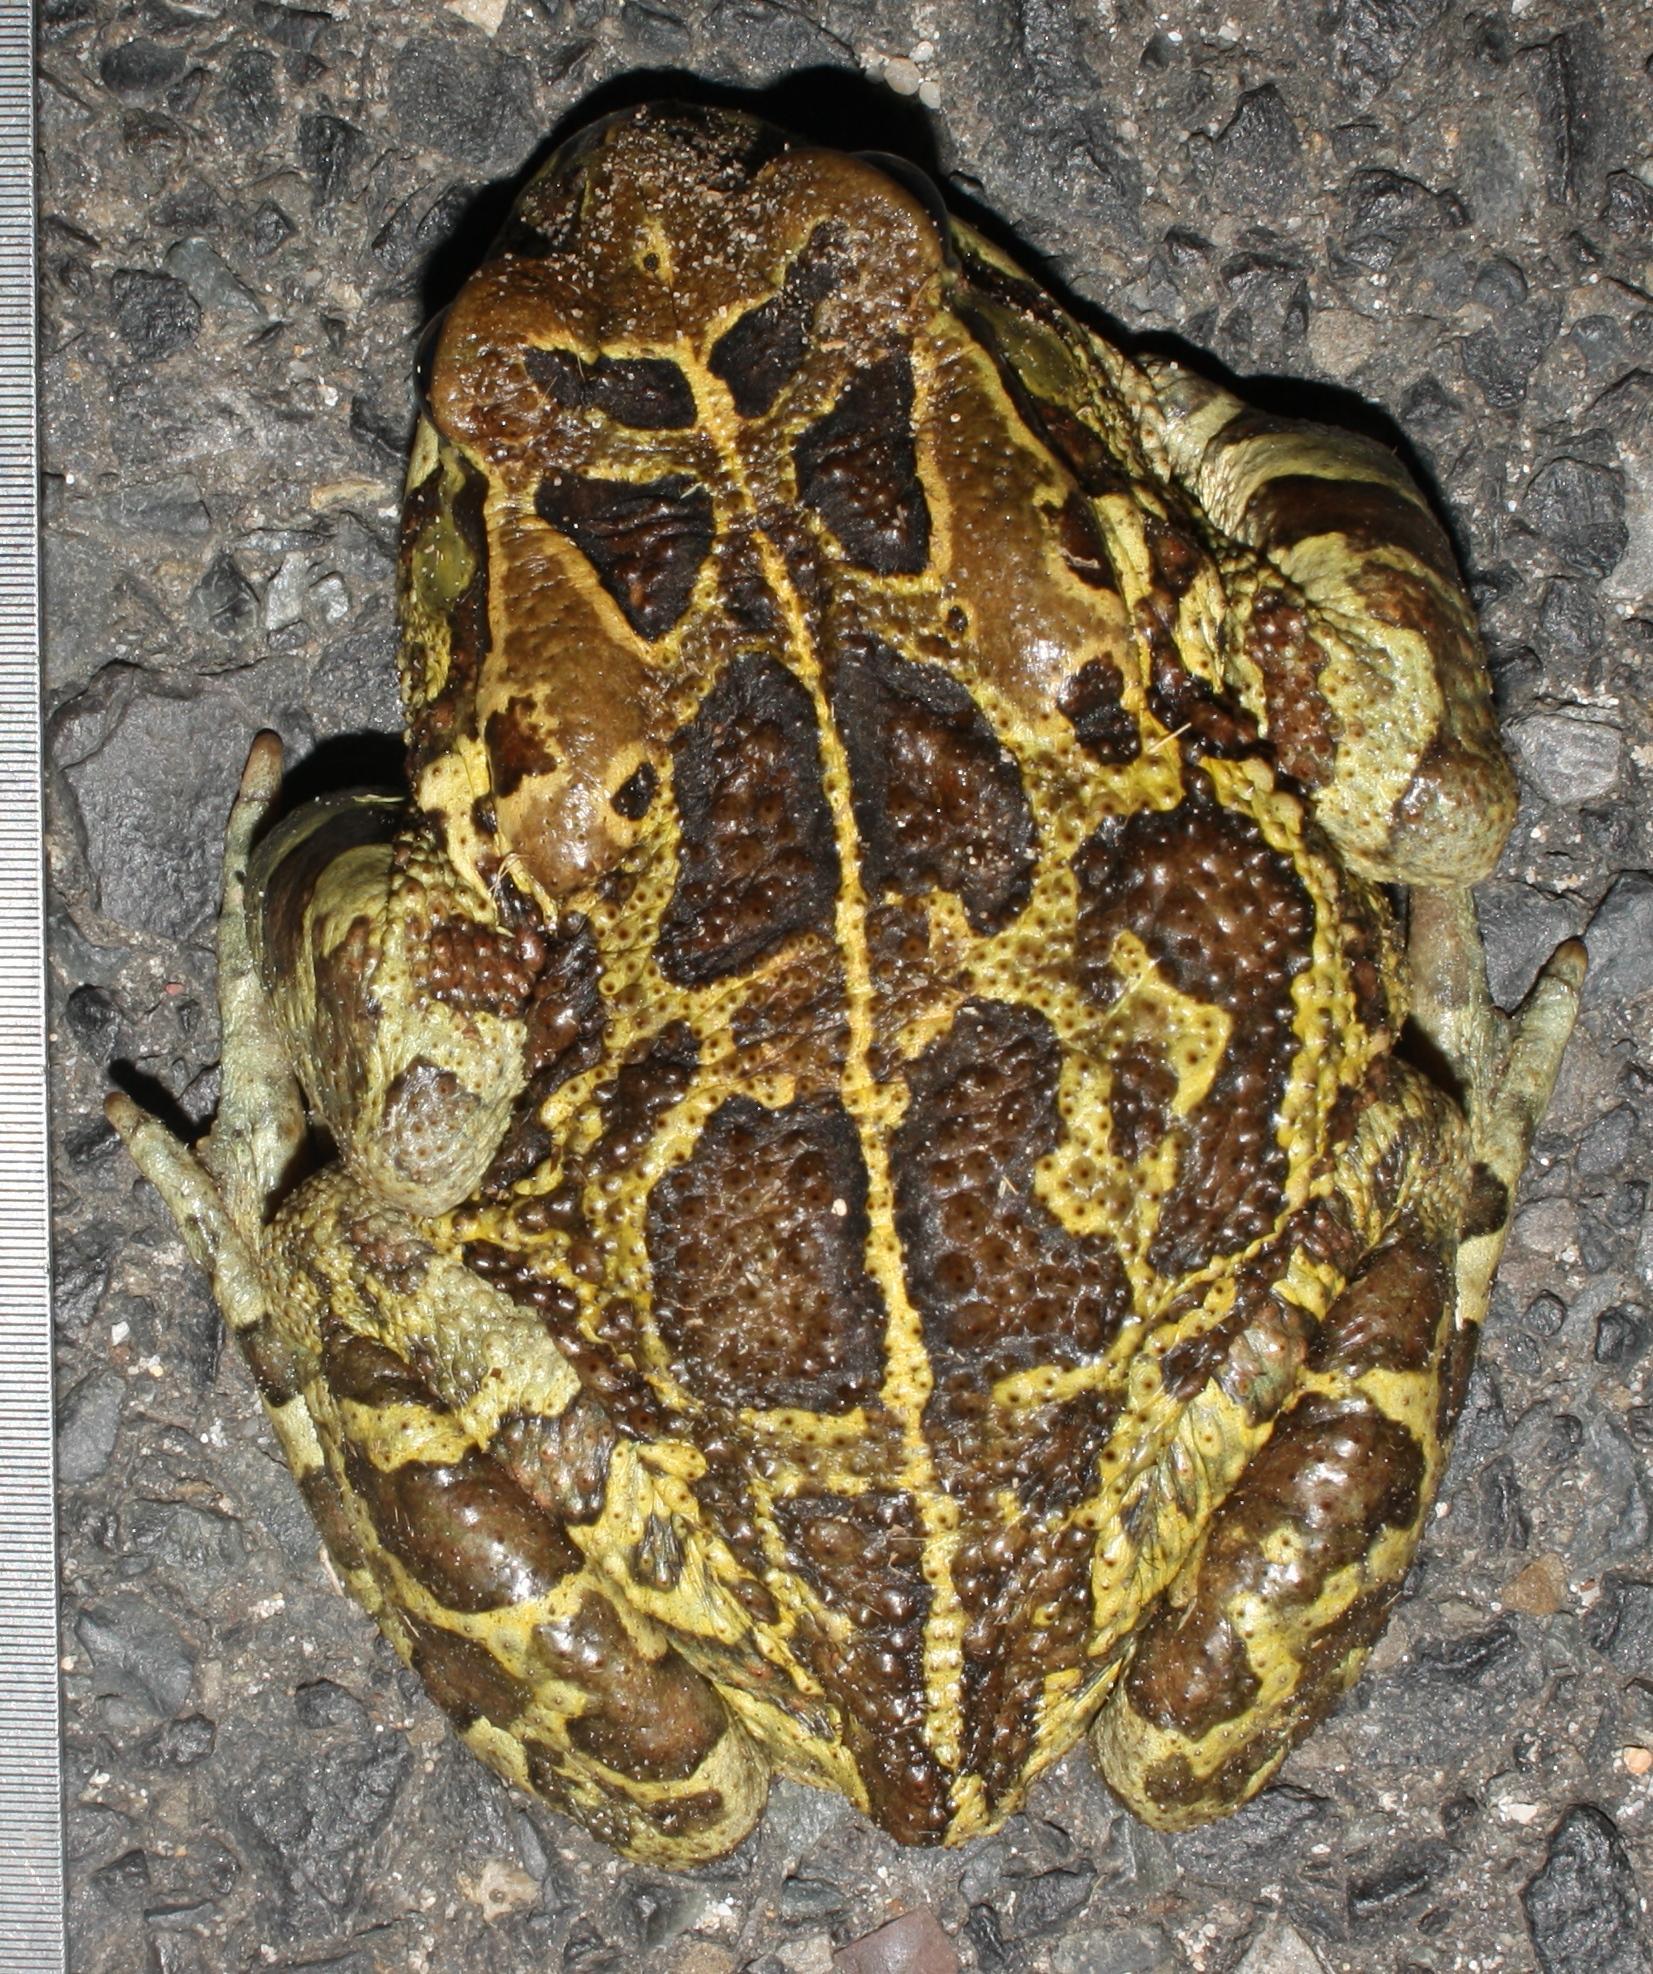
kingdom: Animalia
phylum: Chordata
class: Amphibia
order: Anura
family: Bufonidae
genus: Sclerophrys
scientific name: Sclerophrys pantherina
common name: Panther toad
